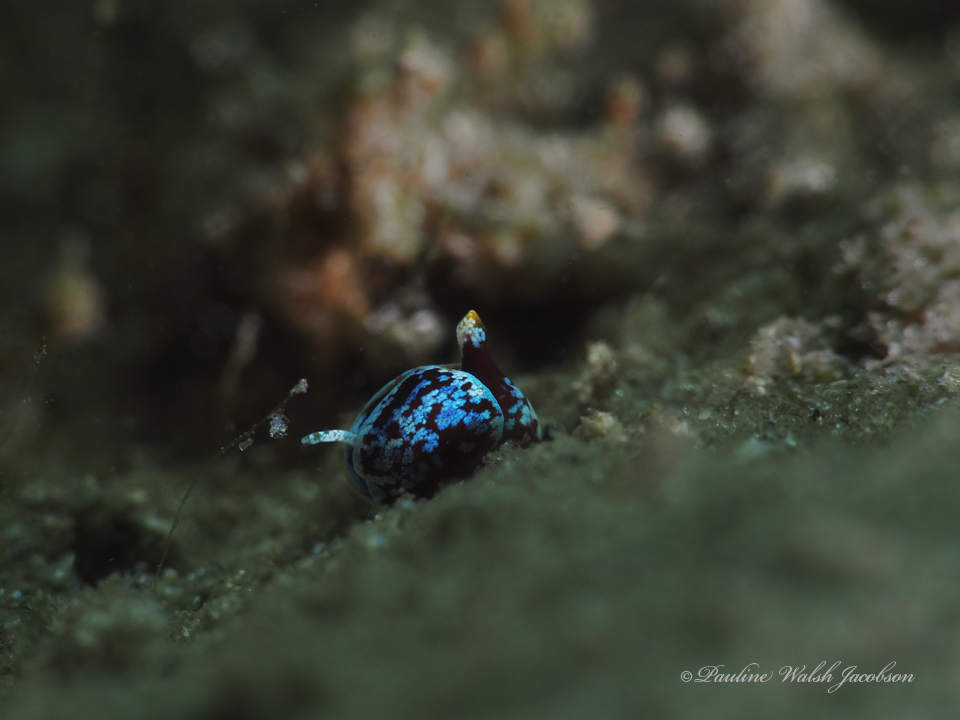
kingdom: Animalia
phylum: Mollusca
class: Gastropoda
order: Cephalaspidea
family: Gastropteridae
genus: Gastropteron
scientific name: Gastropteron chacmol
